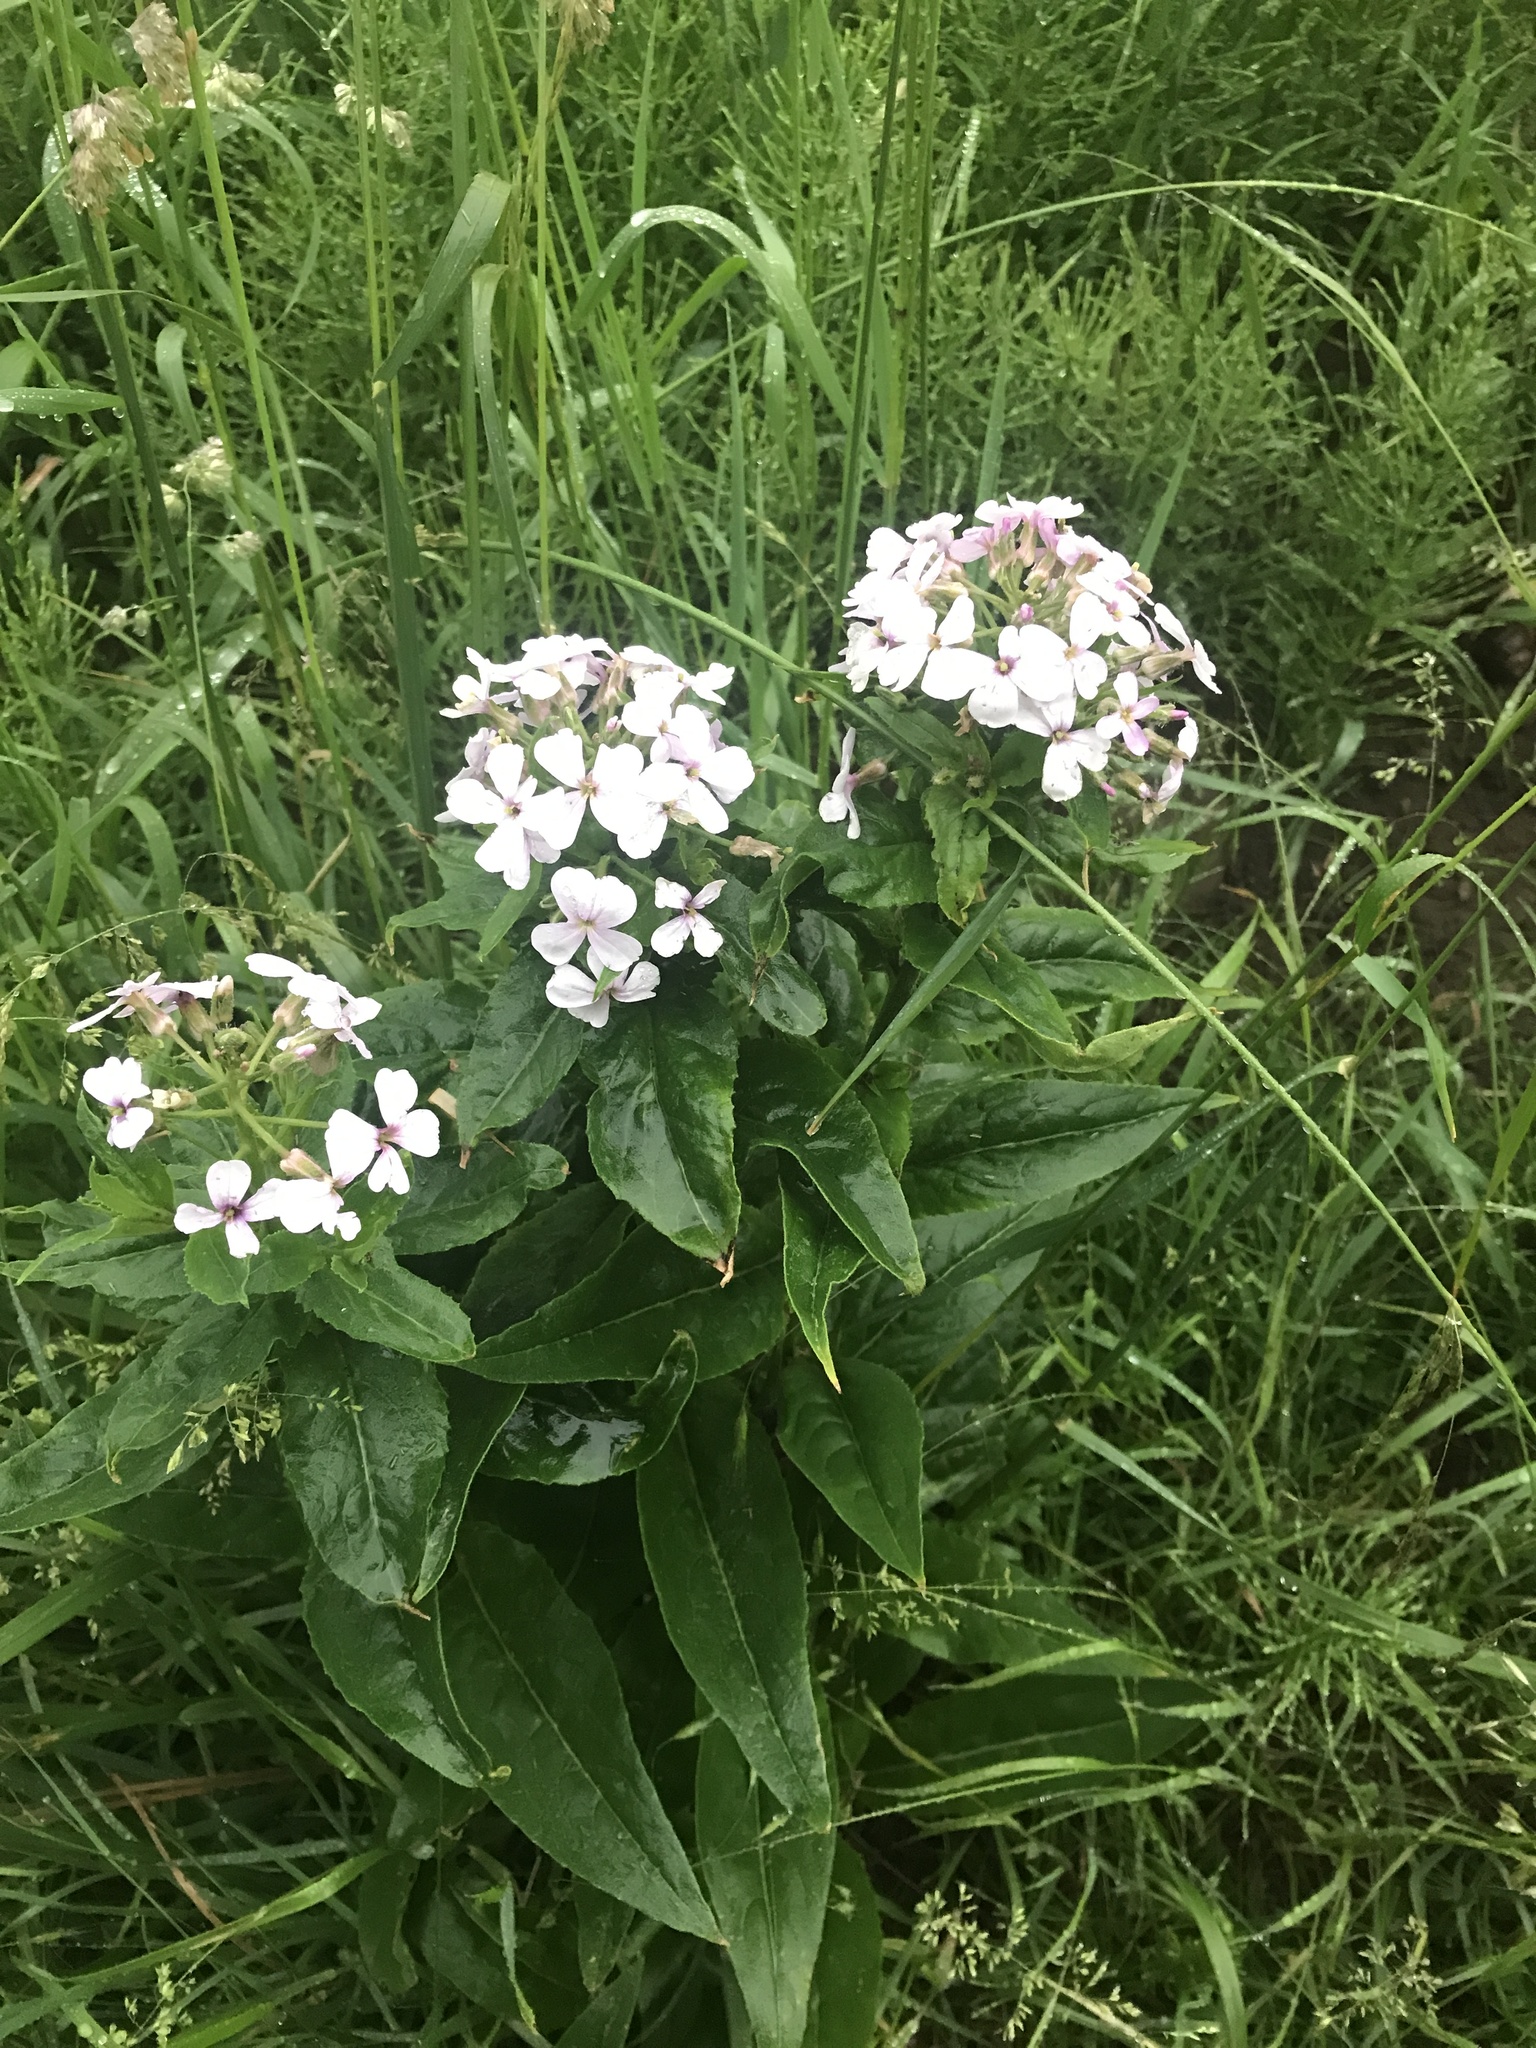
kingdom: Plantae
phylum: Tracheophyta
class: Magnoliopsida
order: Brassicales
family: Brassicaceae
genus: Hesperis
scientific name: Hesperis matronalis
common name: Dame's-violet
